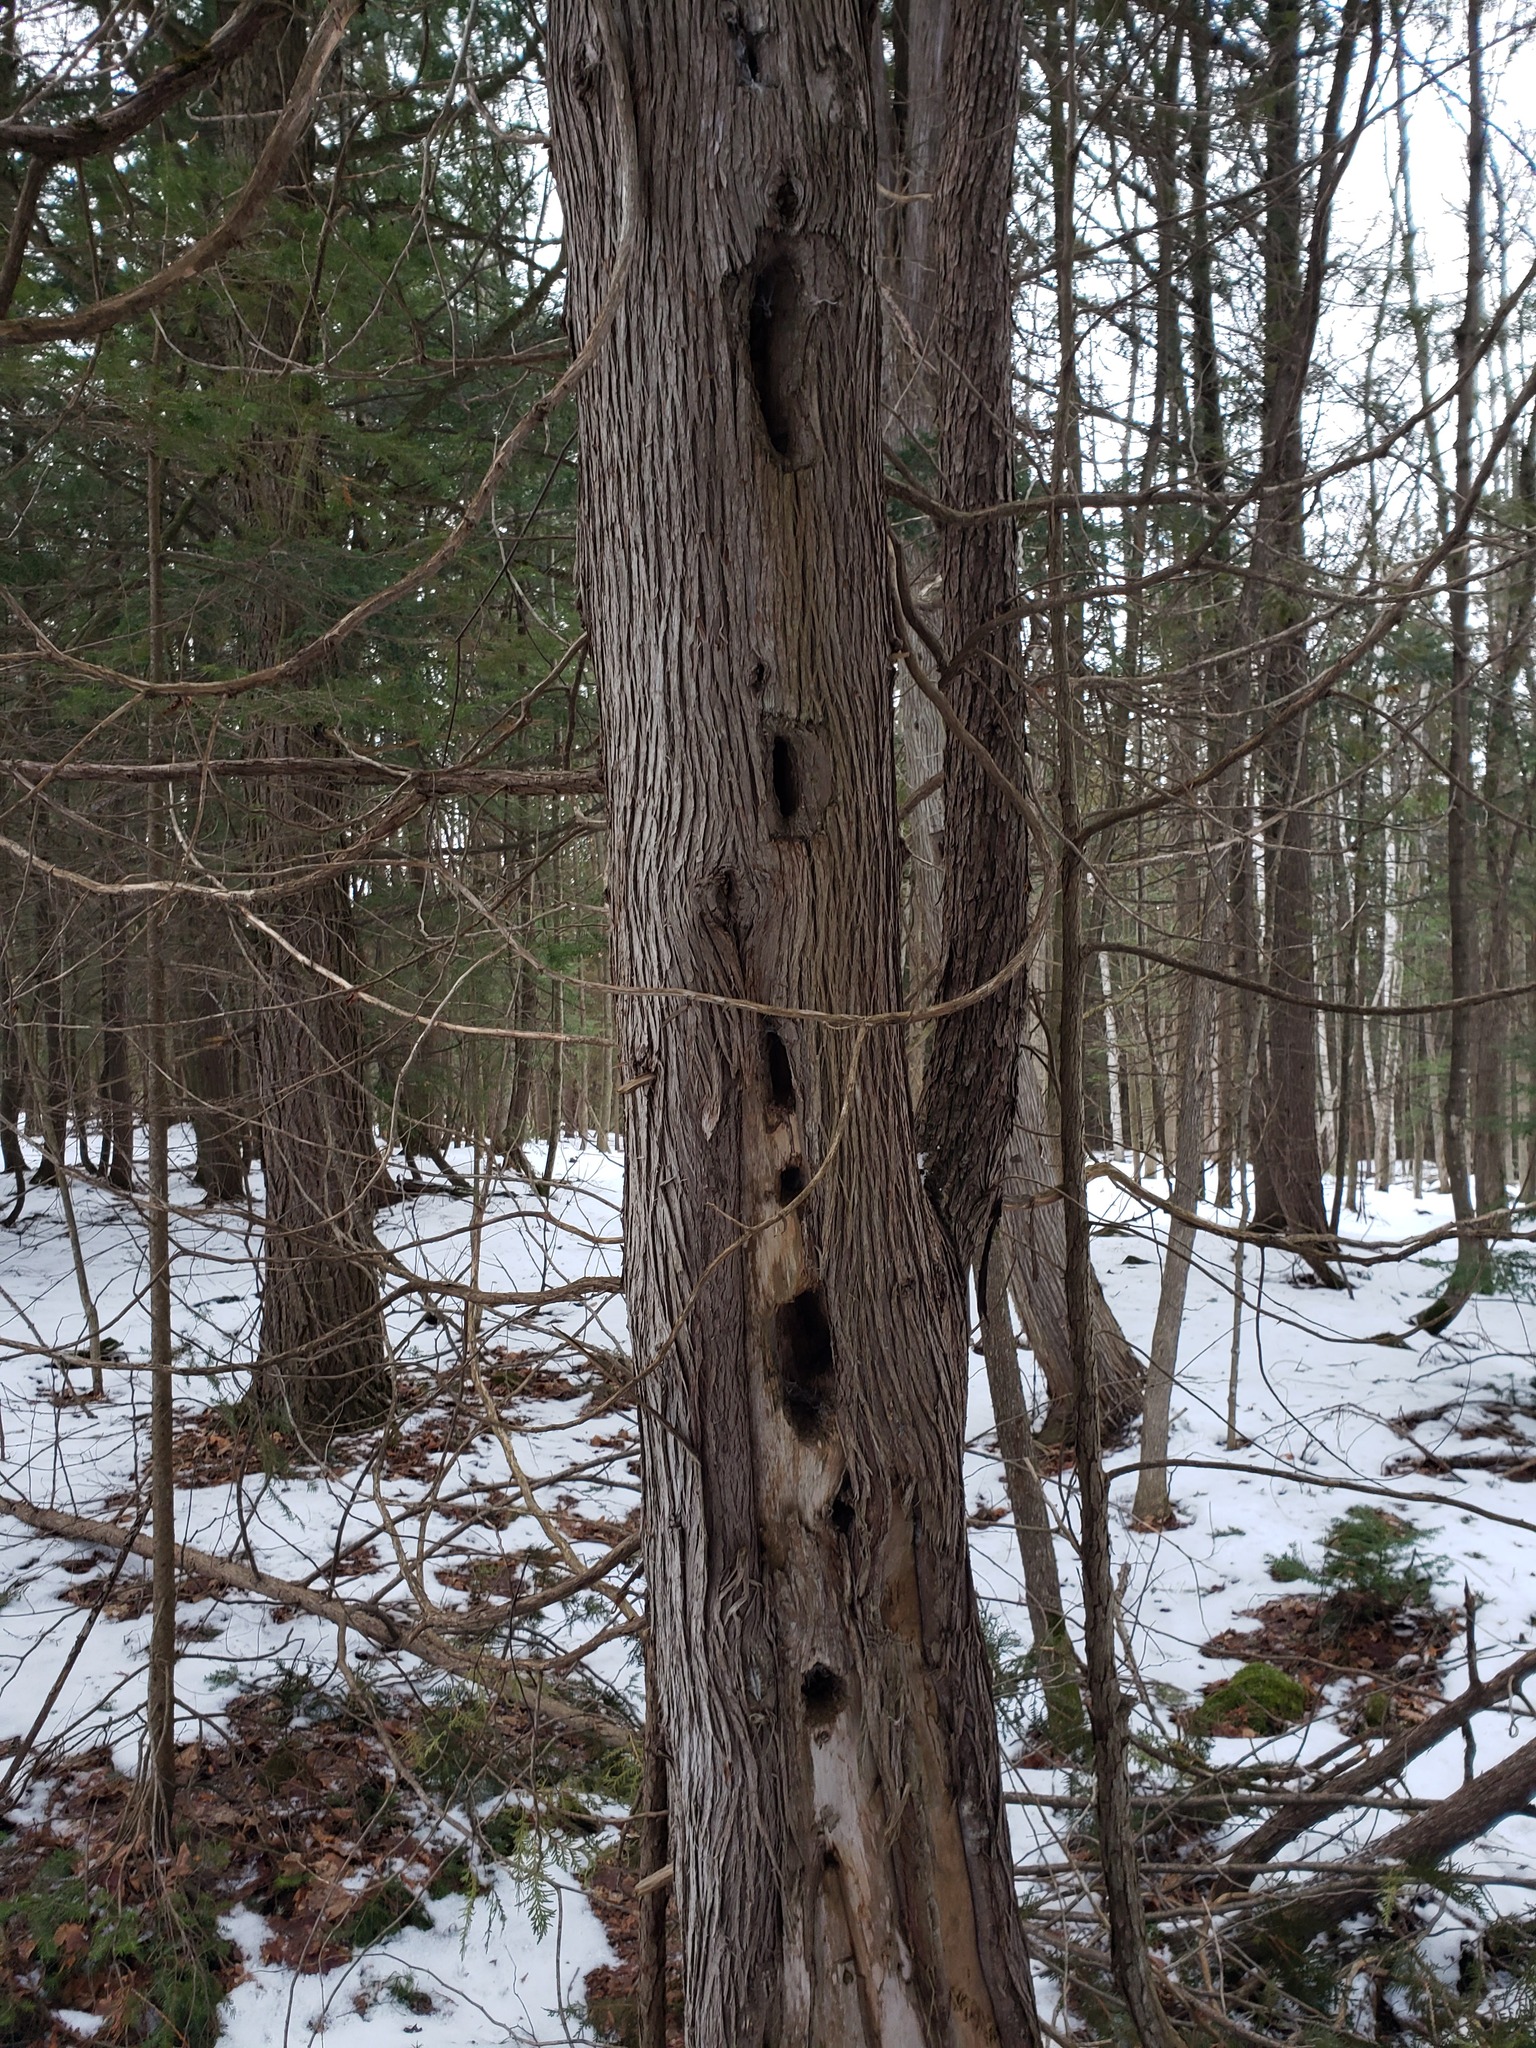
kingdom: Animalia
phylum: Chordata
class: Aves
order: Piciformes
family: Picidae
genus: Dryocopus
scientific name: Dryocopus pileatus
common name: Pileated woodpecker
